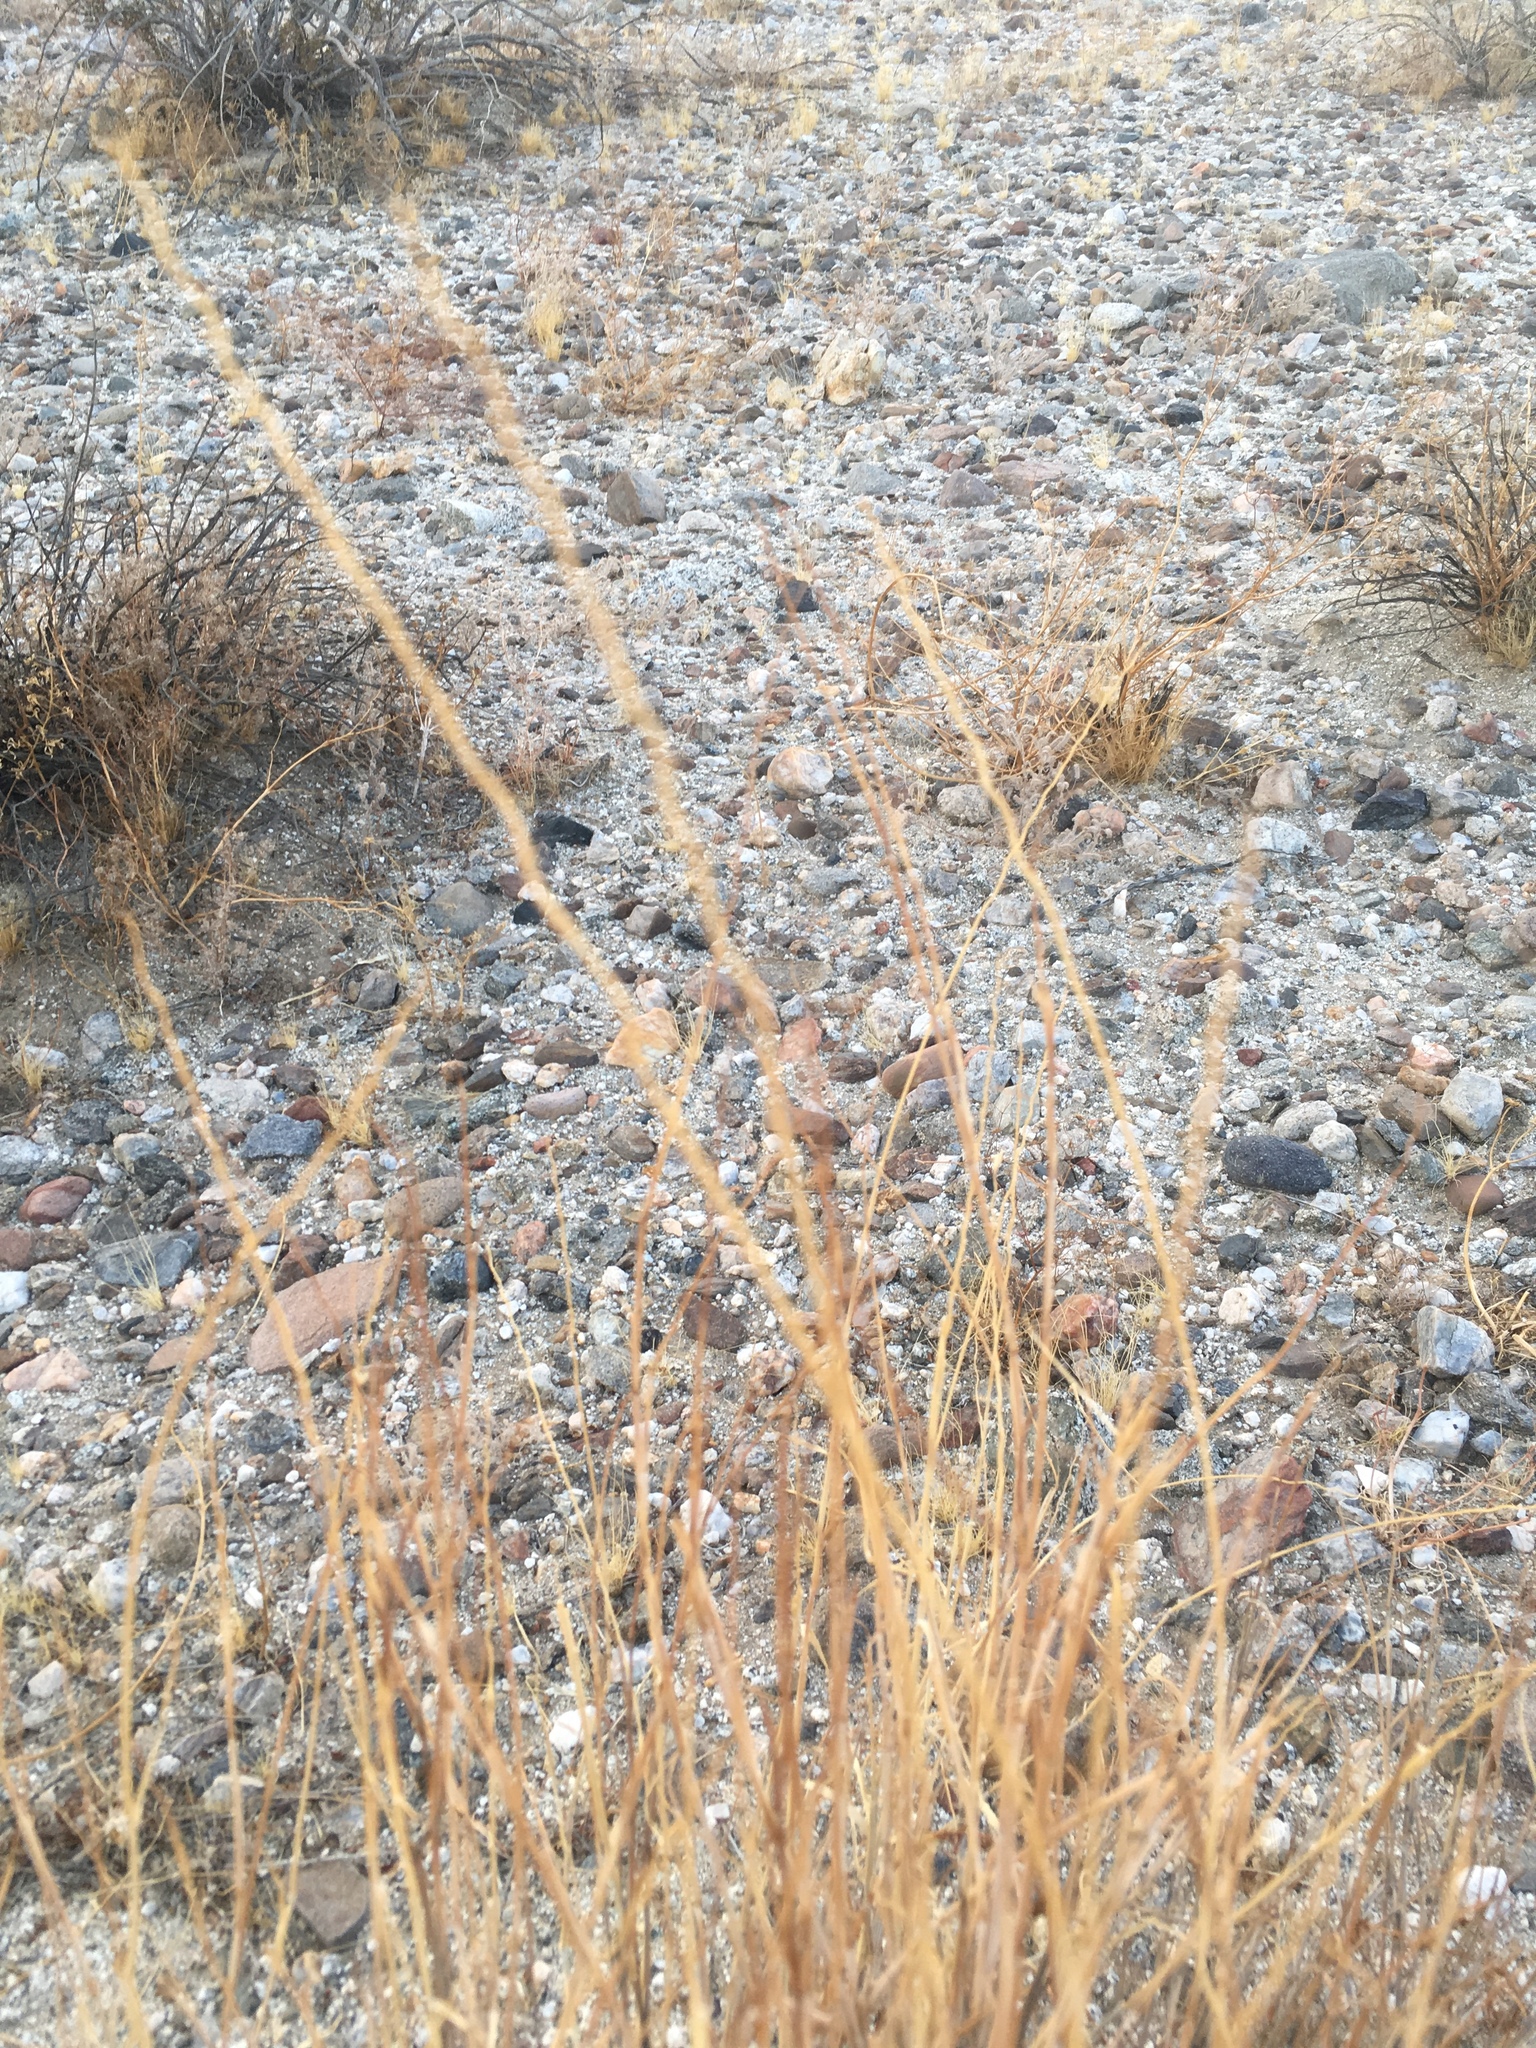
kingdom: Plantae
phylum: Tracheophyta
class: Liliopsida
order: Poales
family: Poaceae
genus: Hilaria
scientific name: Hilaria rigida
